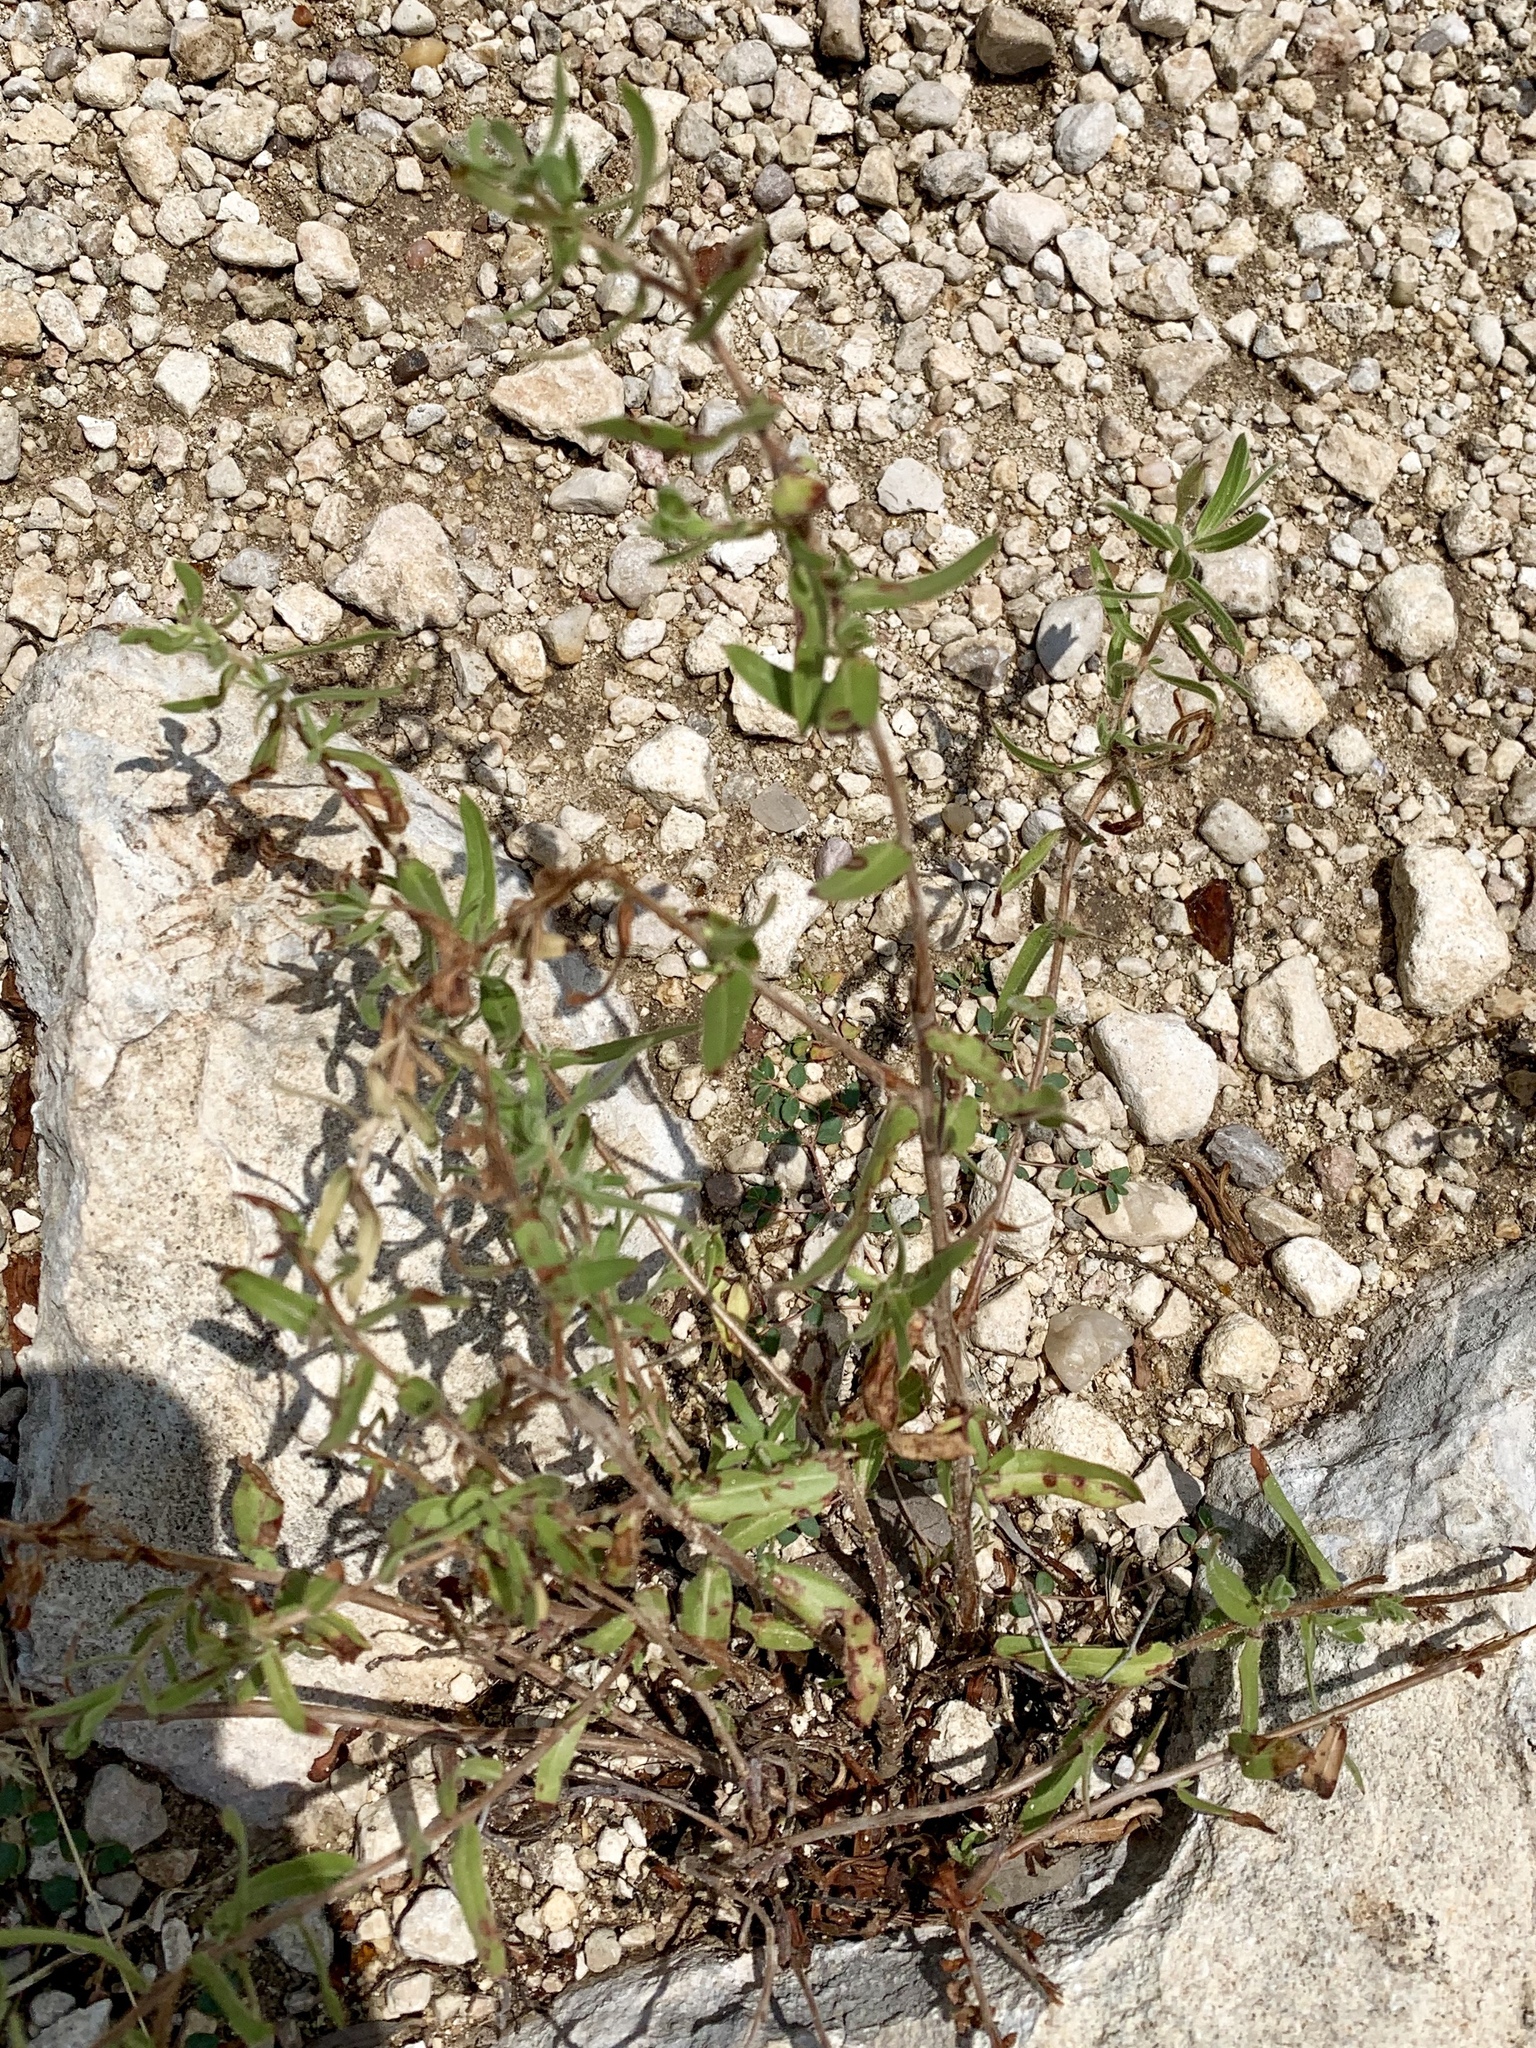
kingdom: Plantae
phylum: Tracheophyta
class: Magnoliopsida
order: Myrtales
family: Onagraceae
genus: Oenothera
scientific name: Oenothera hartwegii
